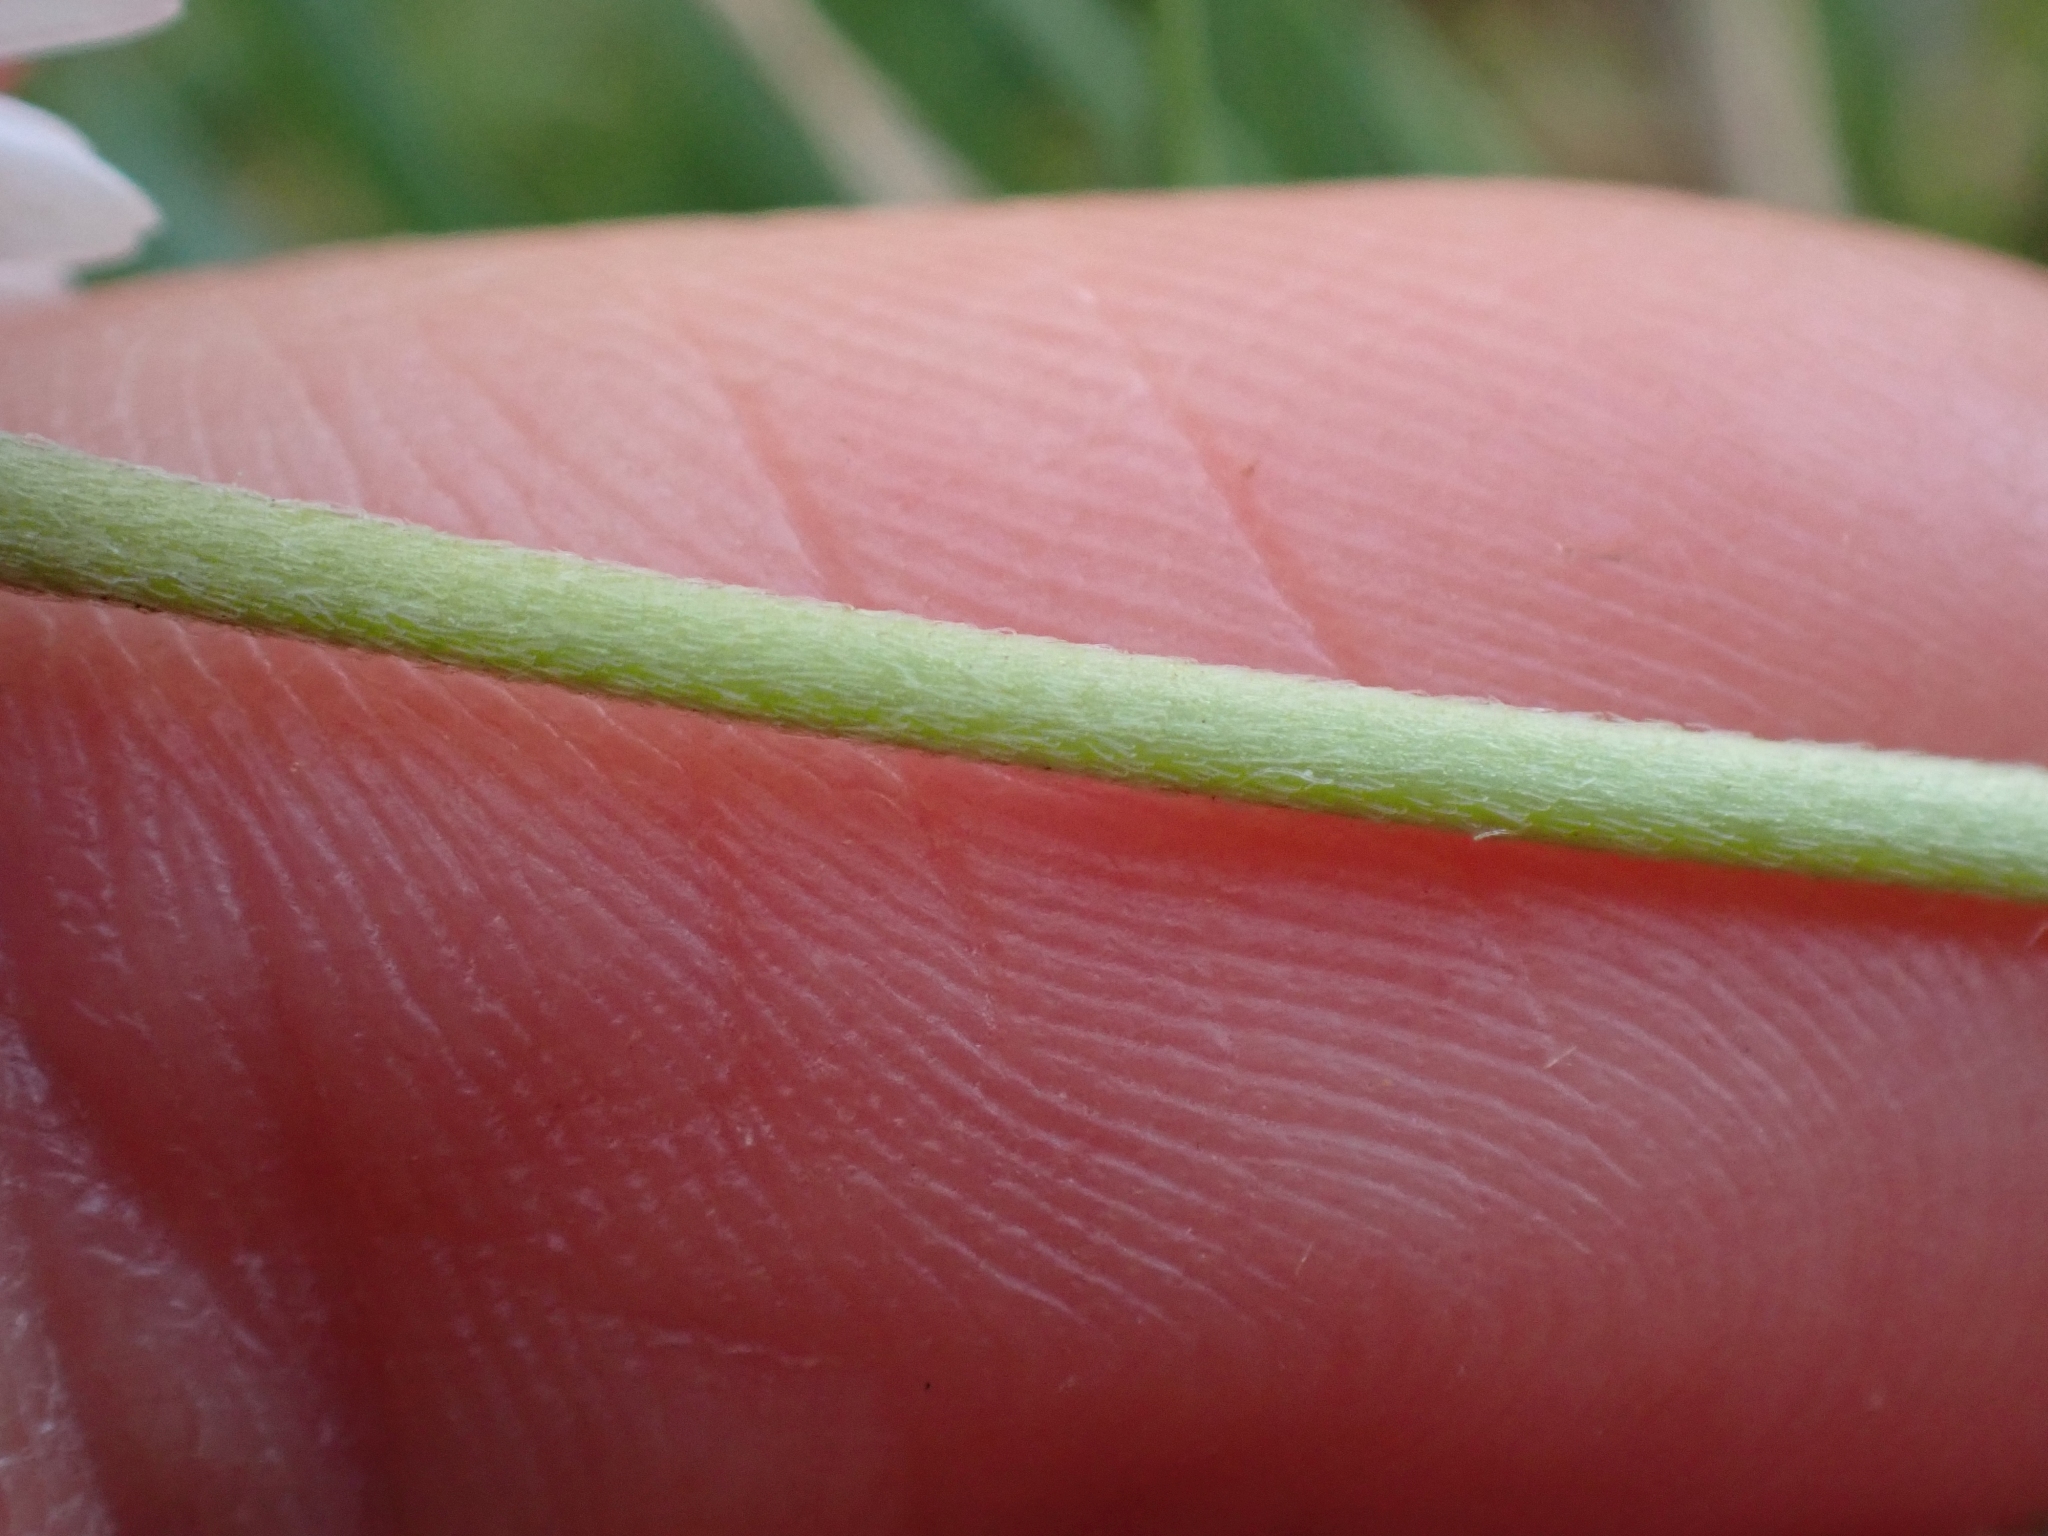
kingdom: Plantae
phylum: Tracheophyta
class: Magnoliopsida
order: Asterales
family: Asteraceae
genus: Bellis
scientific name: Bellis perennis
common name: Lawndaisy
